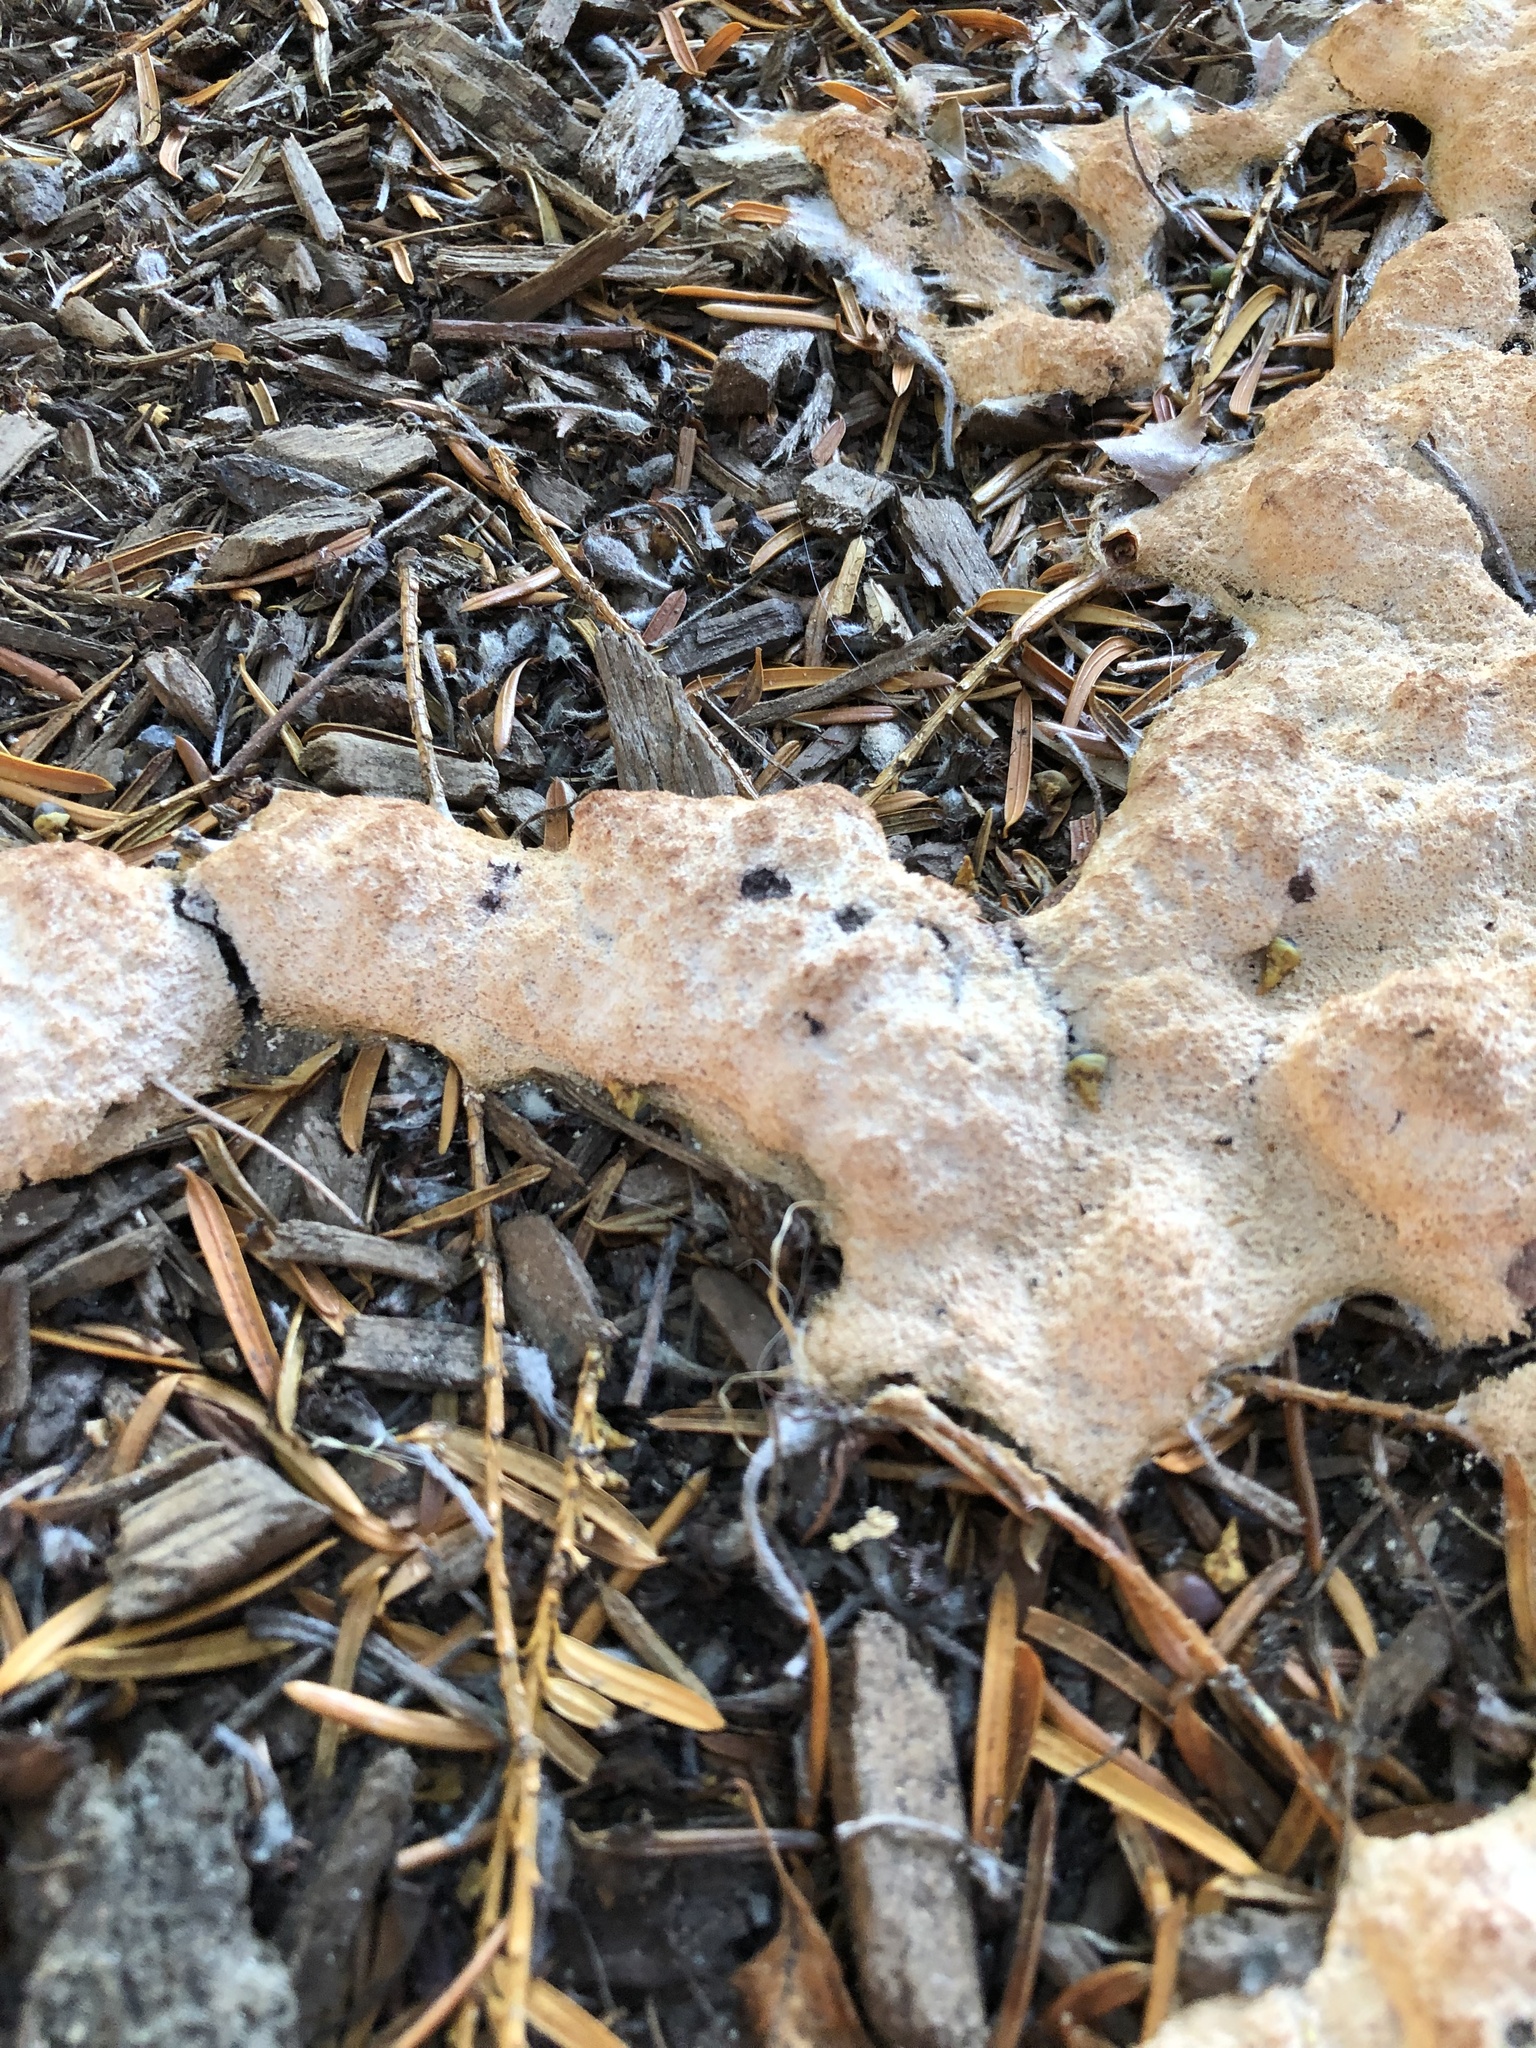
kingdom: Protozoa
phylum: Mycetozoa
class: Myxomycetes
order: Physarales
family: Physaraceae
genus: Fuligo
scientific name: Fuligo septica
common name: Dog vomit slime mold
